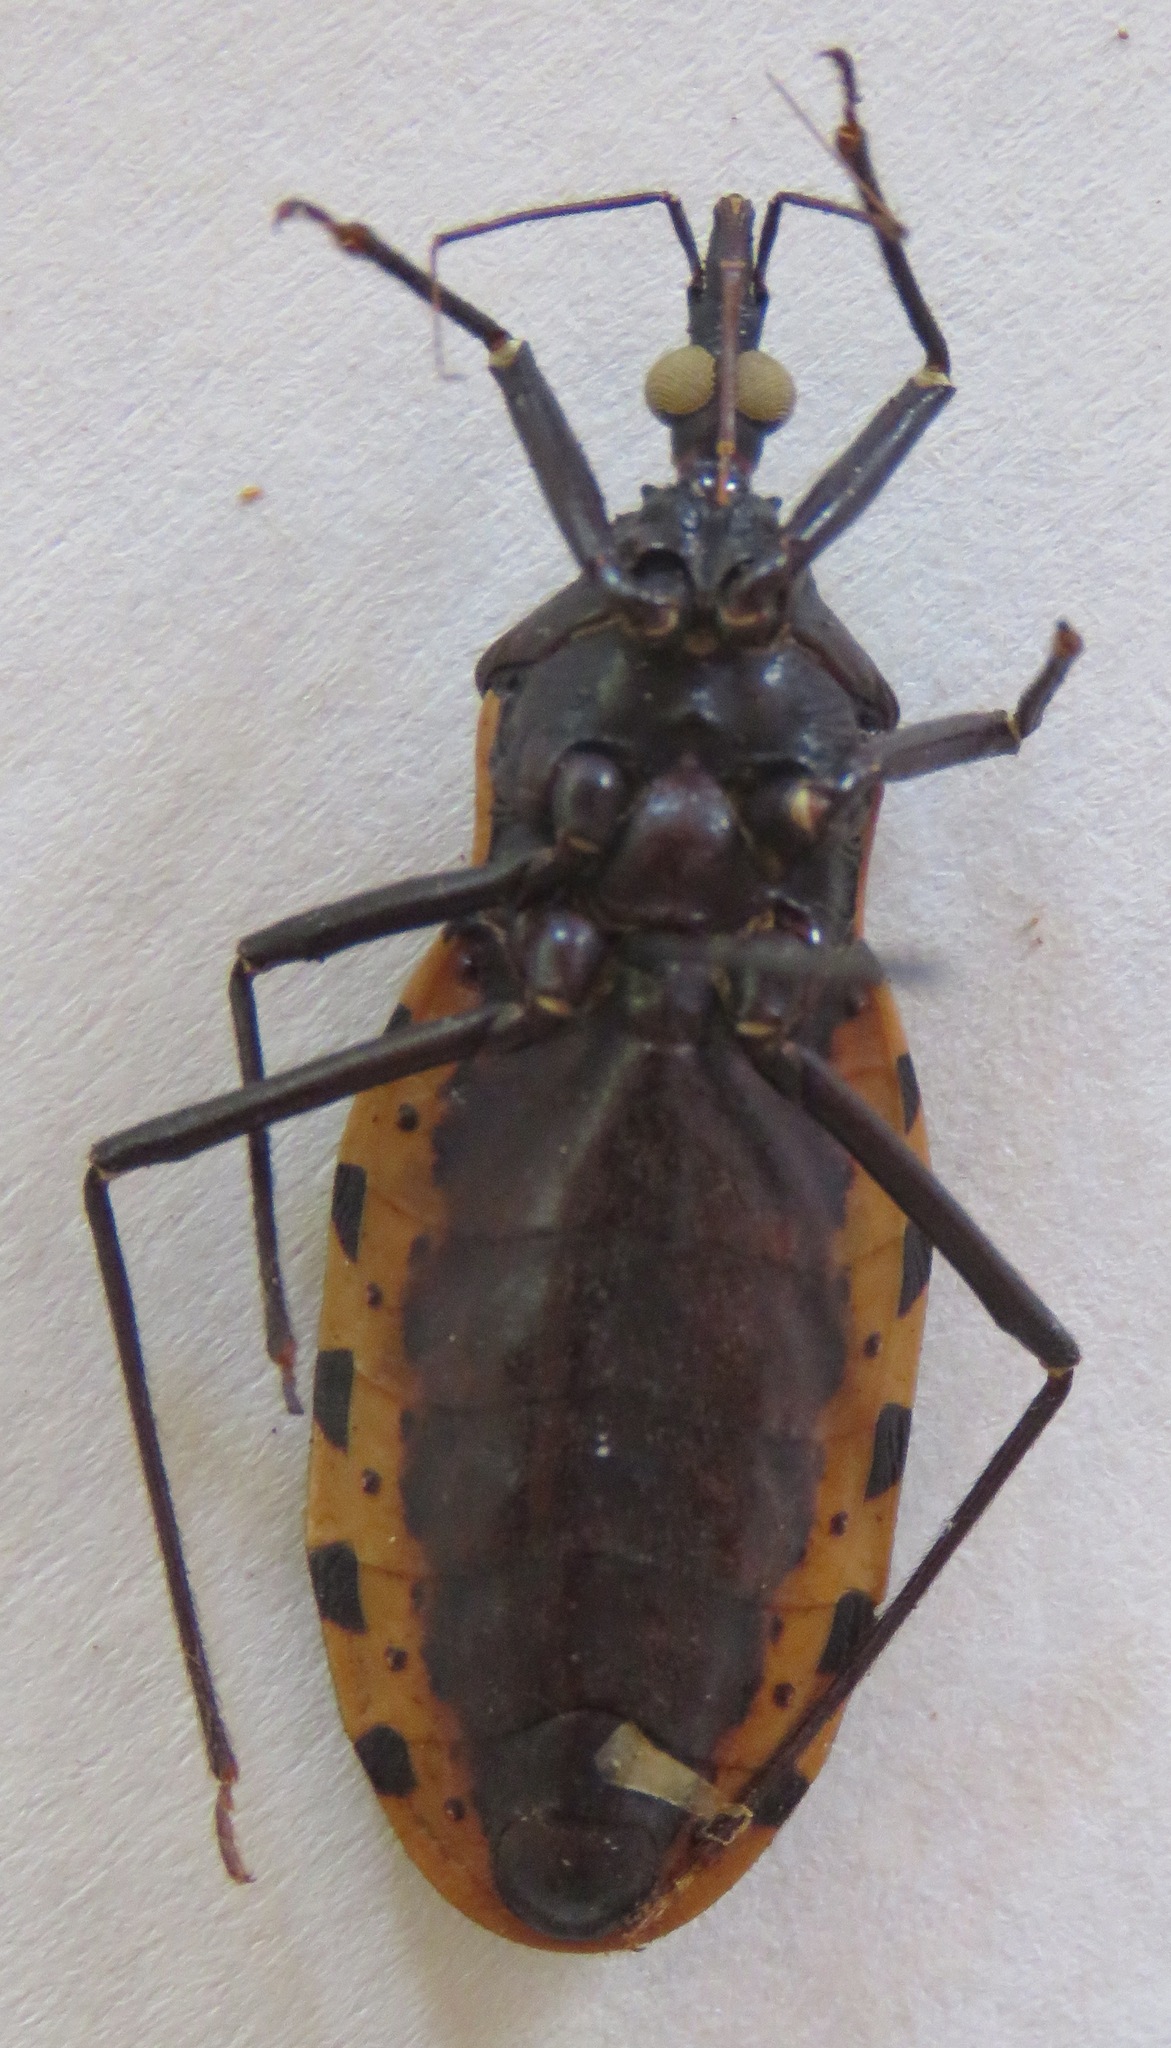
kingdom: Animalia
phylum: Arthropoda
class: Insecta
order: Hemiptera
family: Reduviidae
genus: Meccus
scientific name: Meccus dimidiatus
